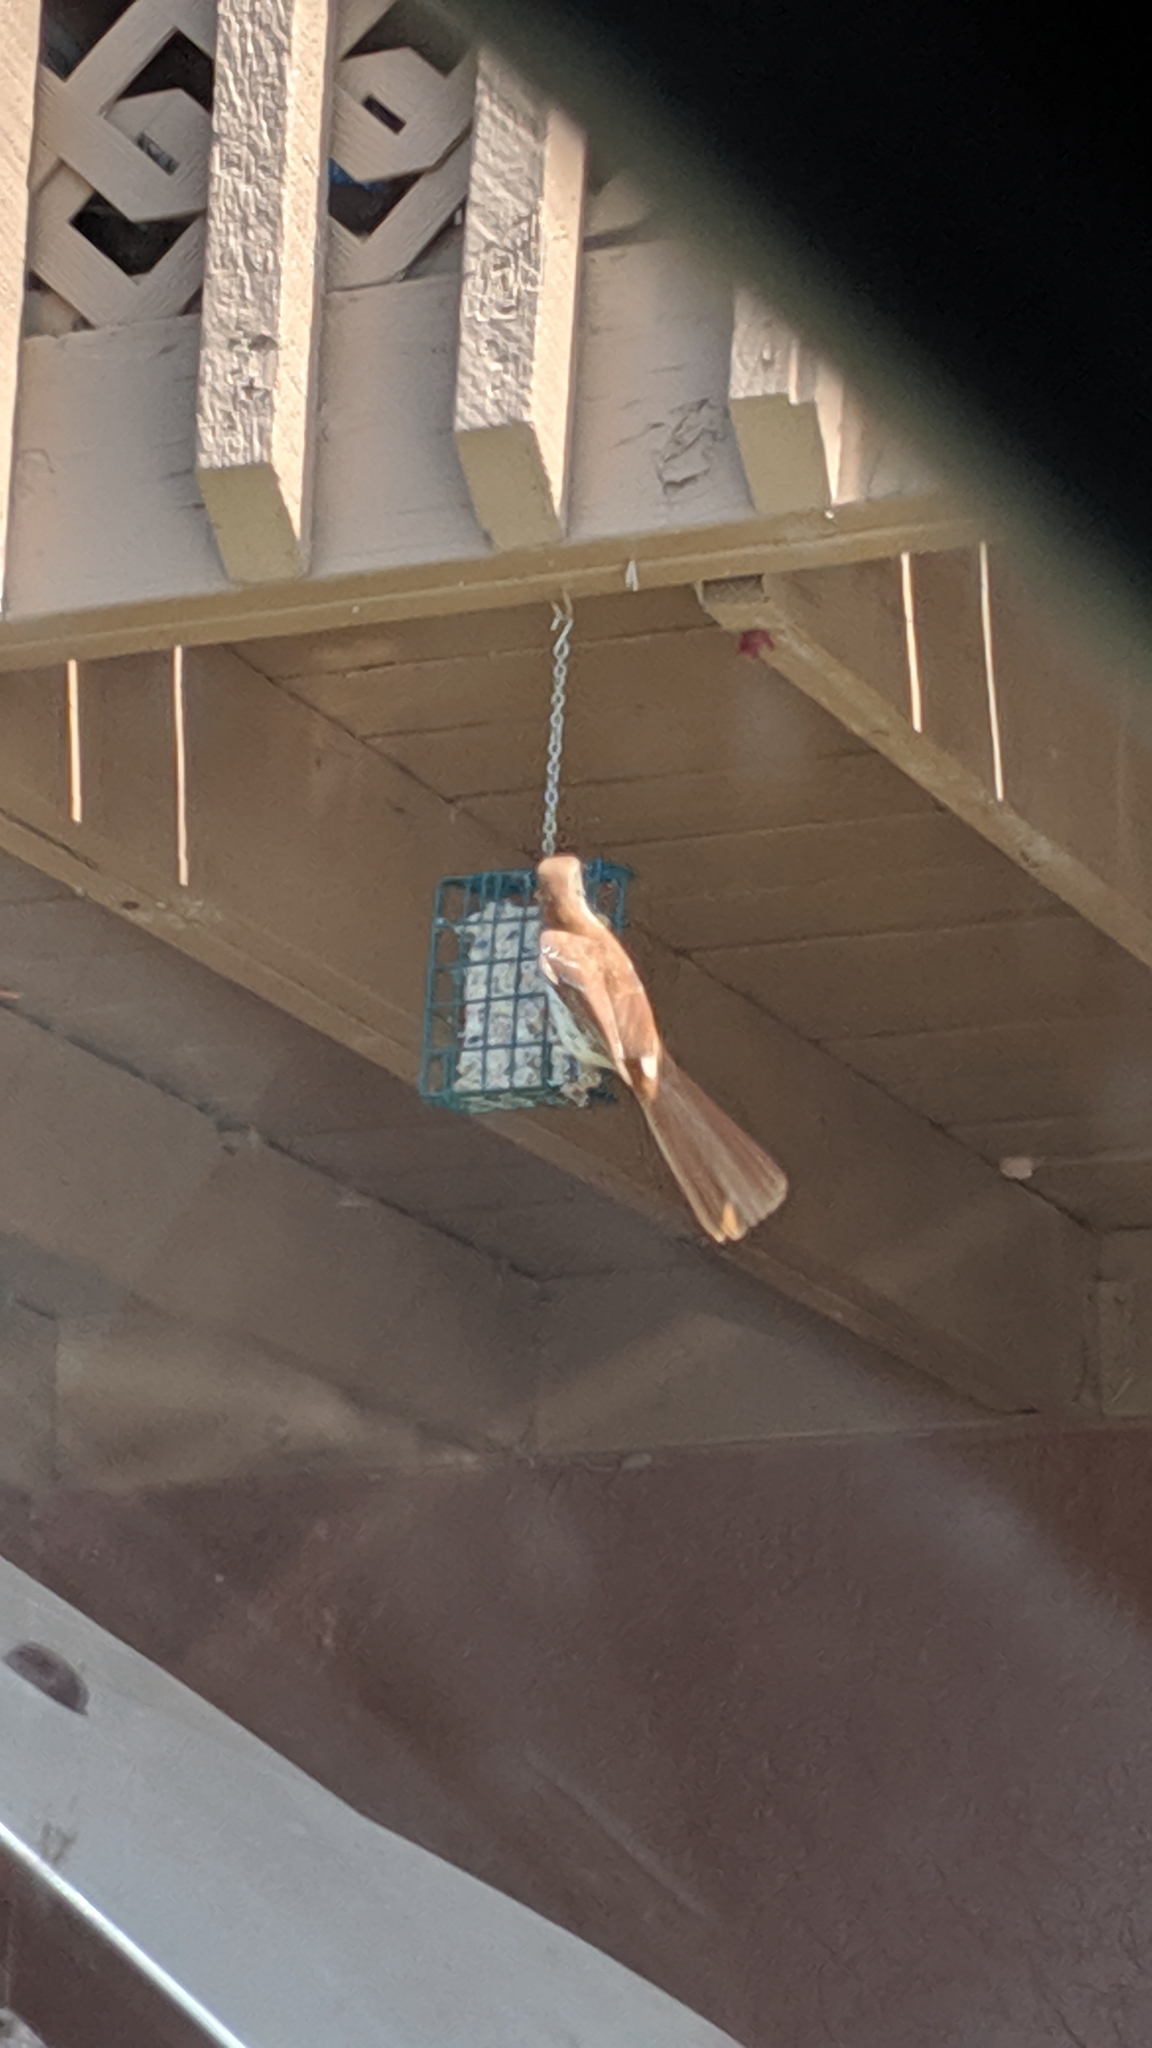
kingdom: Animalia
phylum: Chordata
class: Aves
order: Passeriformes
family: Mimidae
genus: Toxostoma
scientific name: Toxostoma rufum
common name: Brown thrasher
